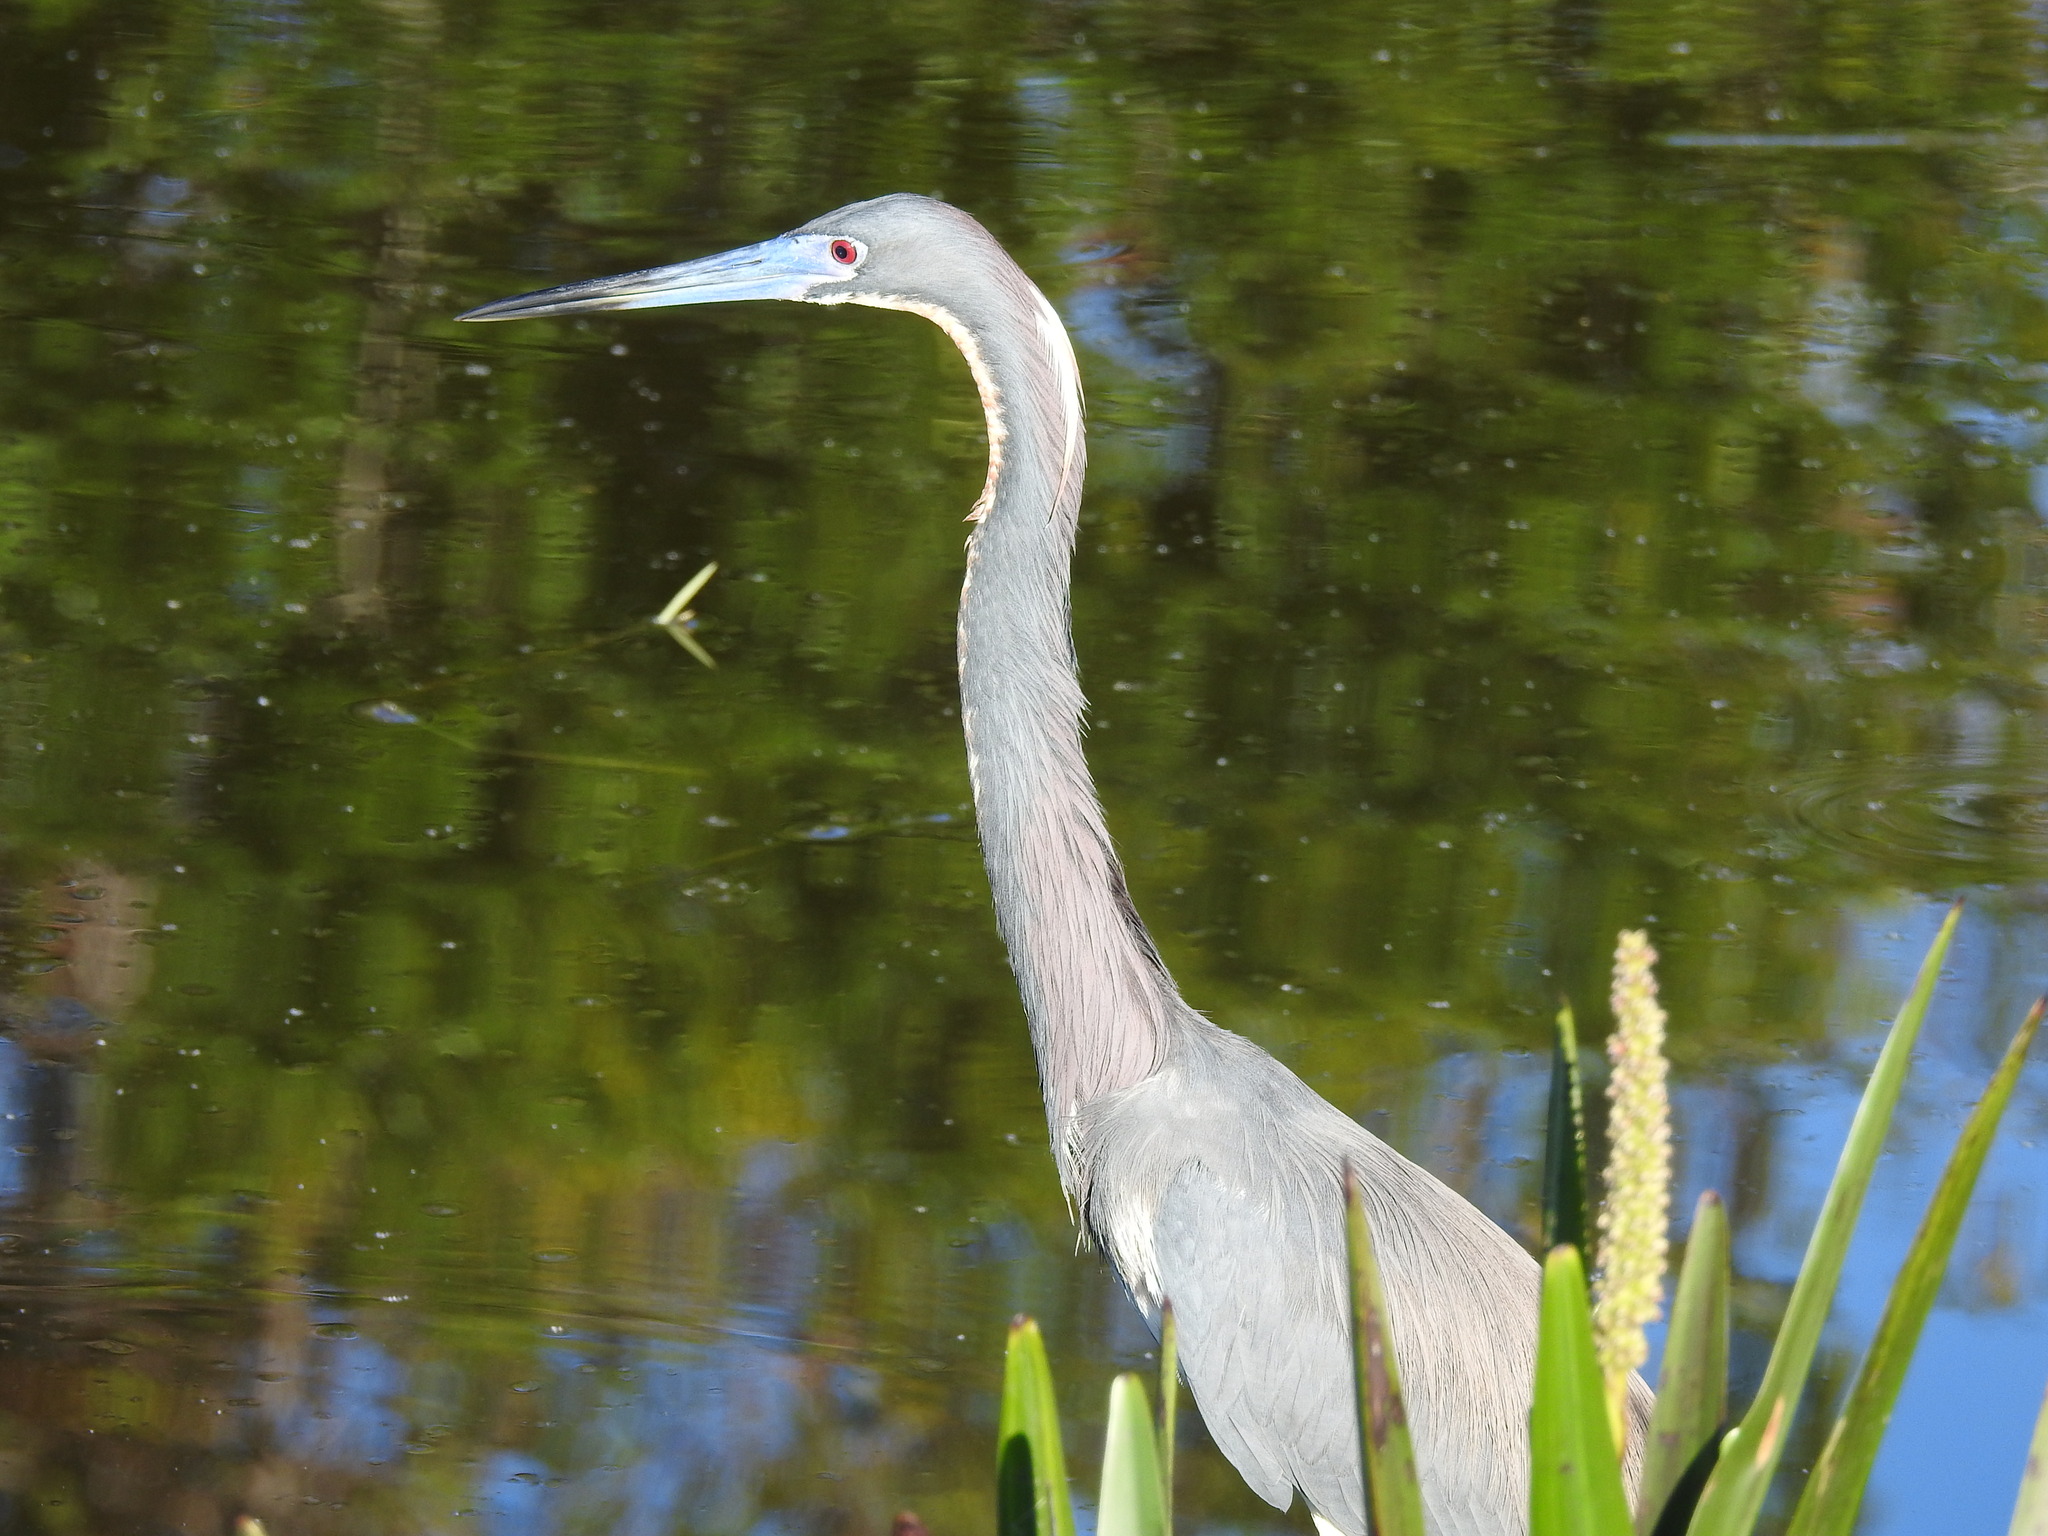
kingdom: Animalia
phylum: Chordata
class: Aves
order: Pelecaniformes
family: Ardeidae
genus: Egretta
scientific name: Egretta tricolor
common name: Tricolored heron
